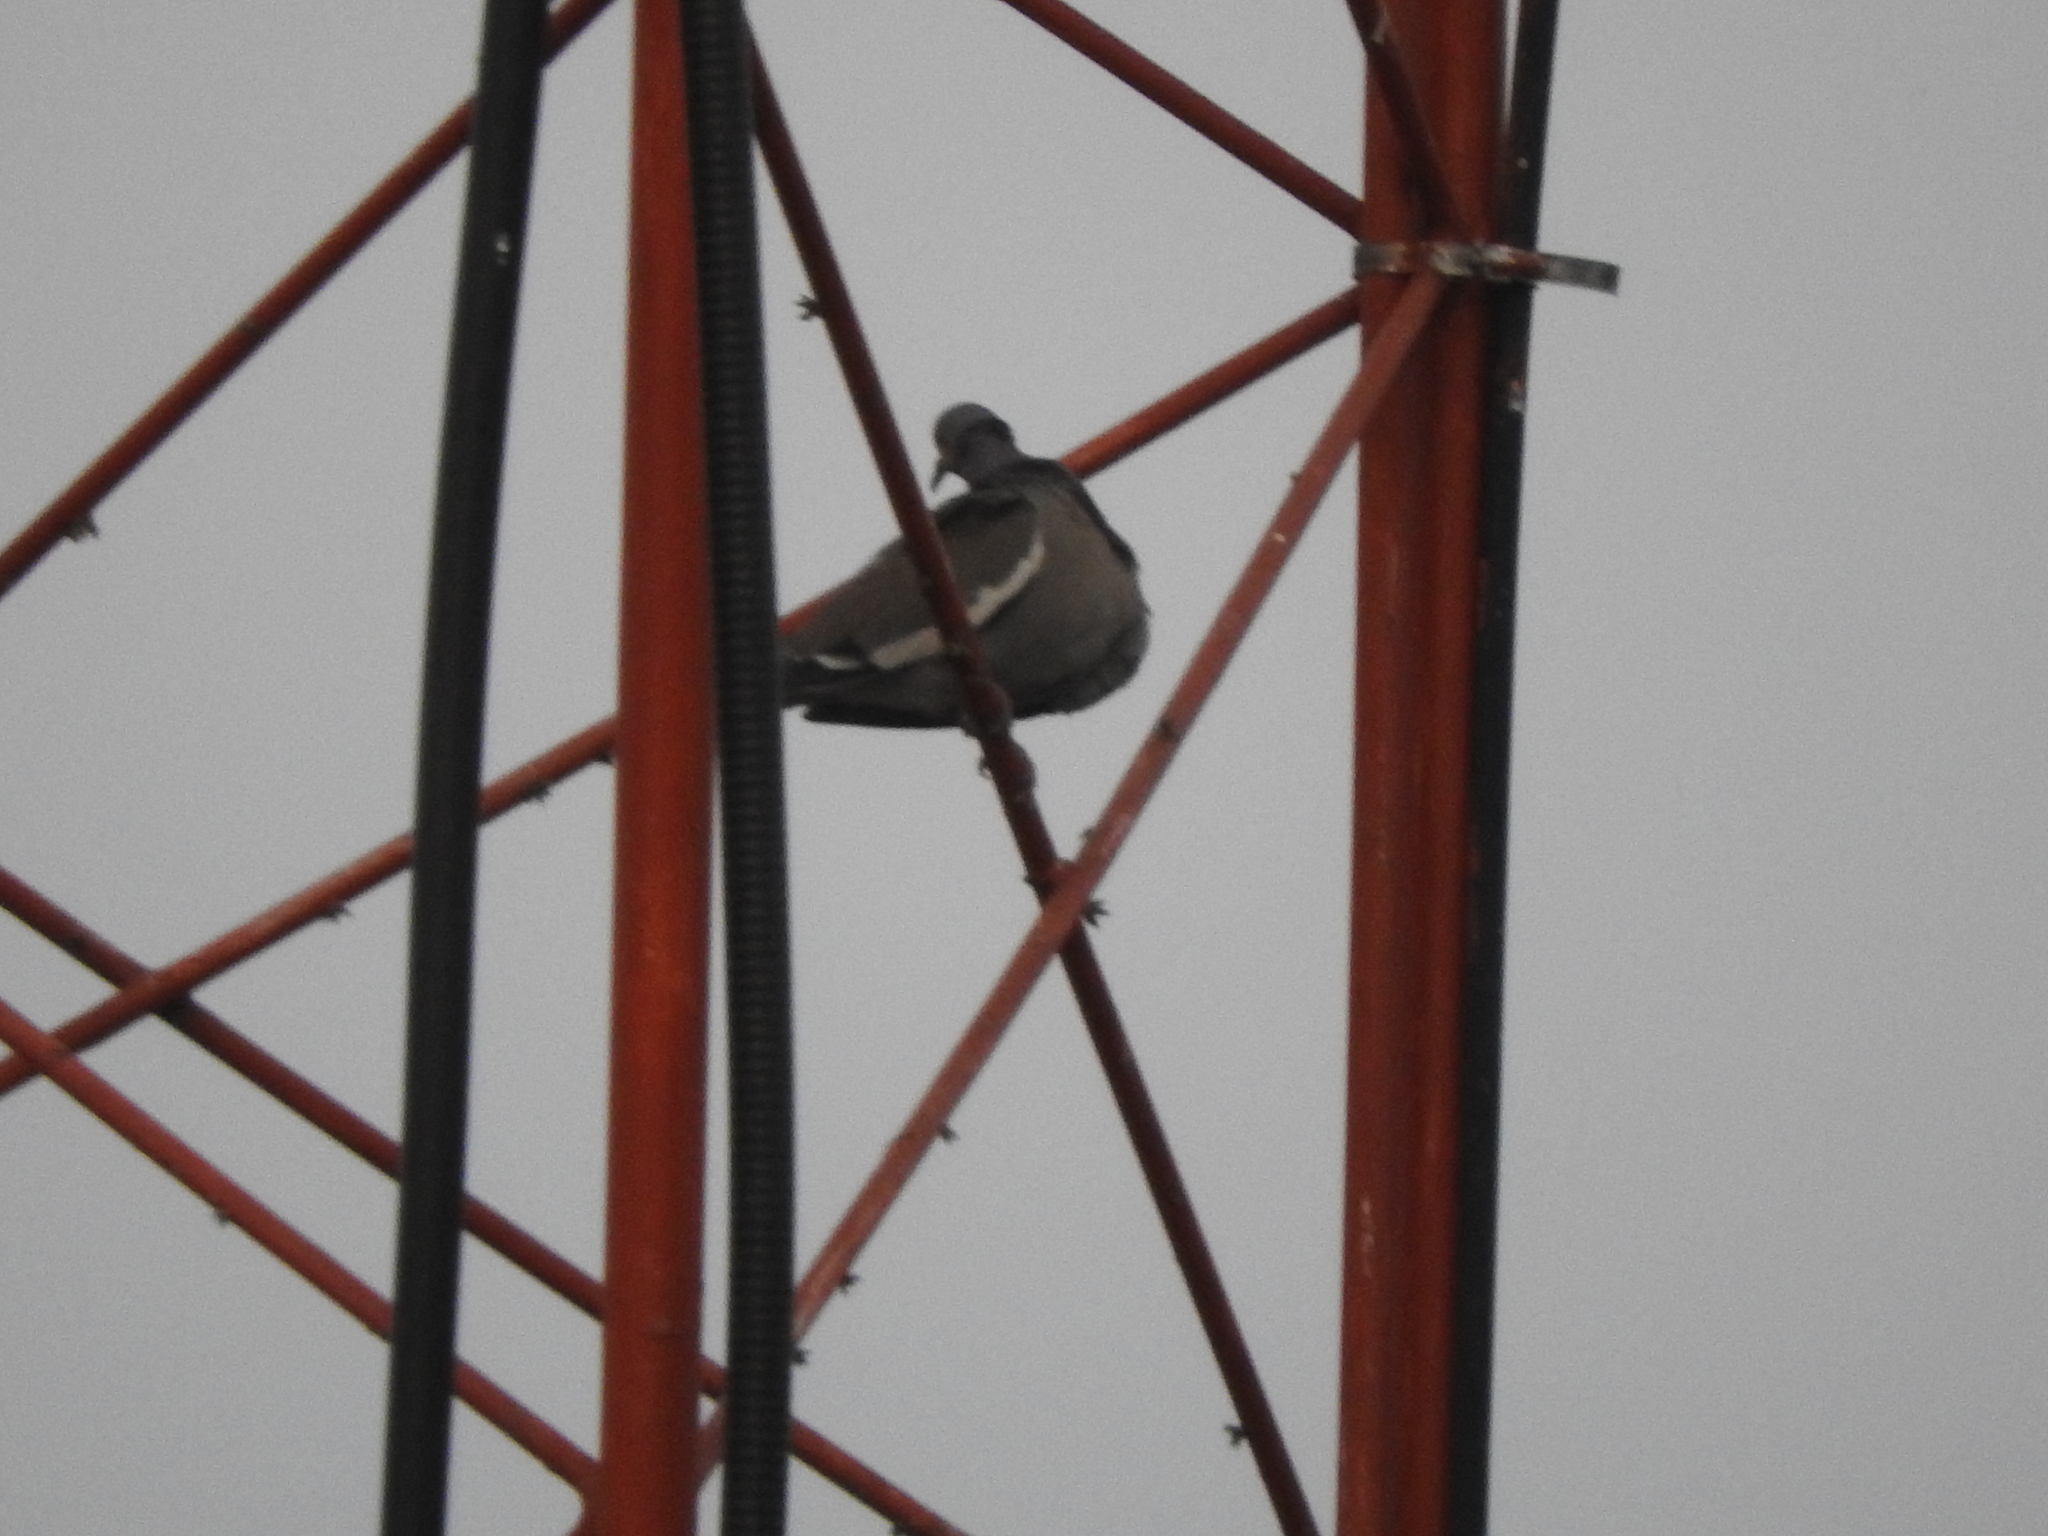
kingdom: Animalia
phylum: Chordata
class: Aves
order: Columbiformes
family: Columbidae
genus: Zenaida
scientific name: Zenaida asiatica
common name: White-winged dove
